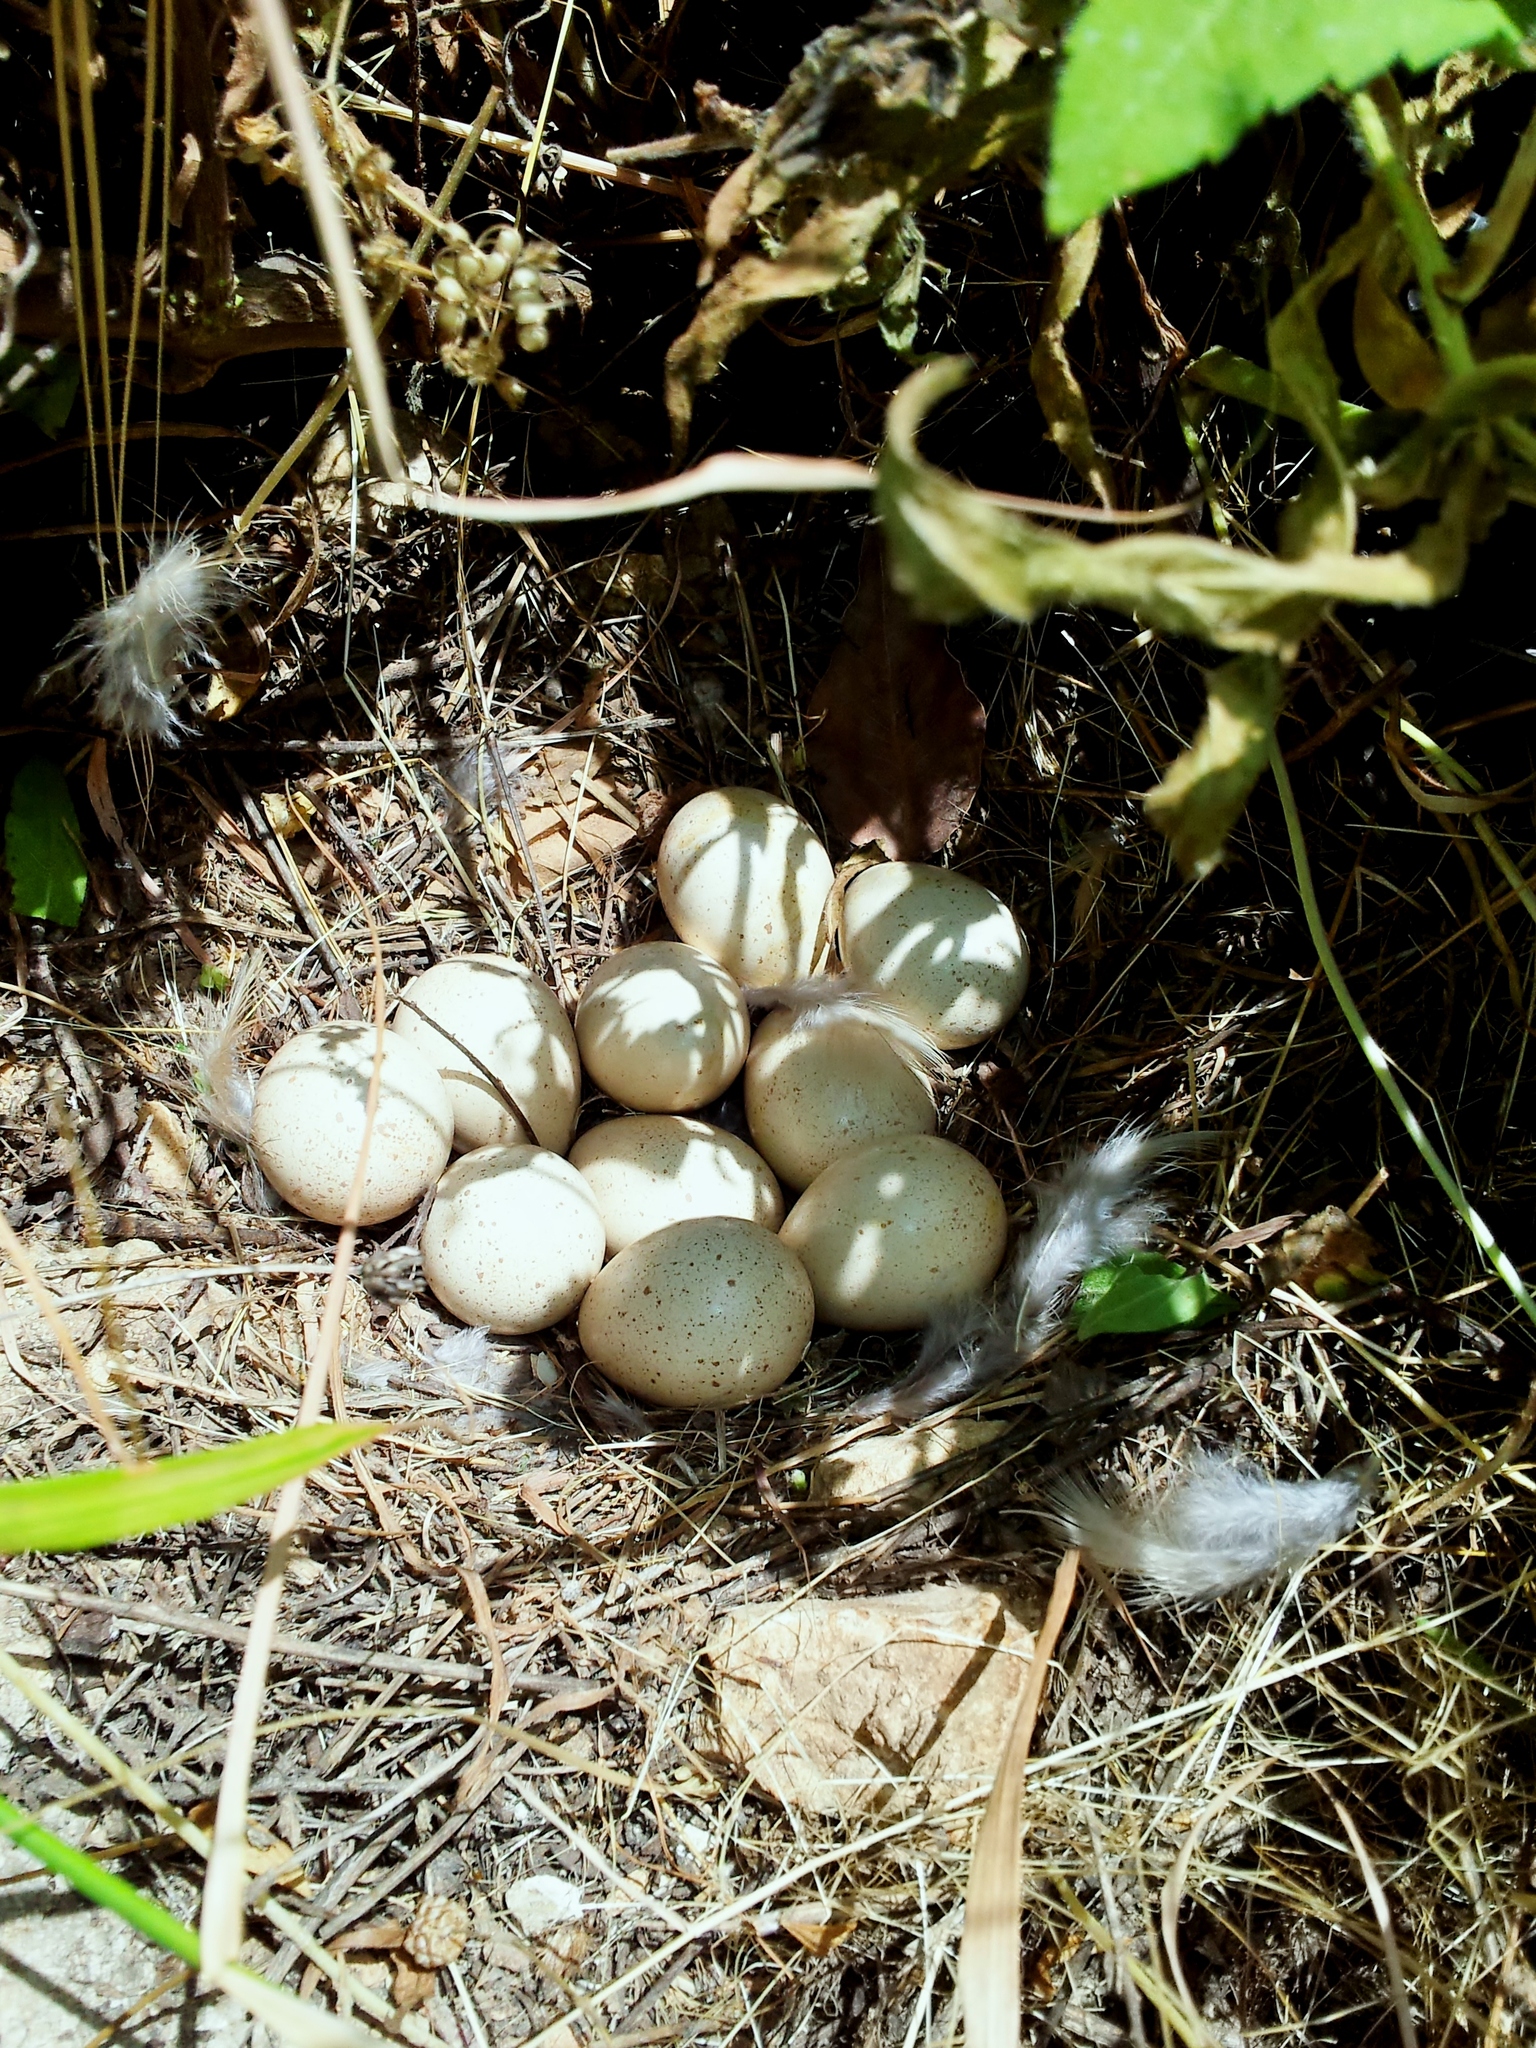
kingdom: Animalia
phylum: Chordata
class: Aves
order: Galliformes
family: Phasianidae
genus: Alectoris
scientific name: Alectoris chukar
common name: Chukar
